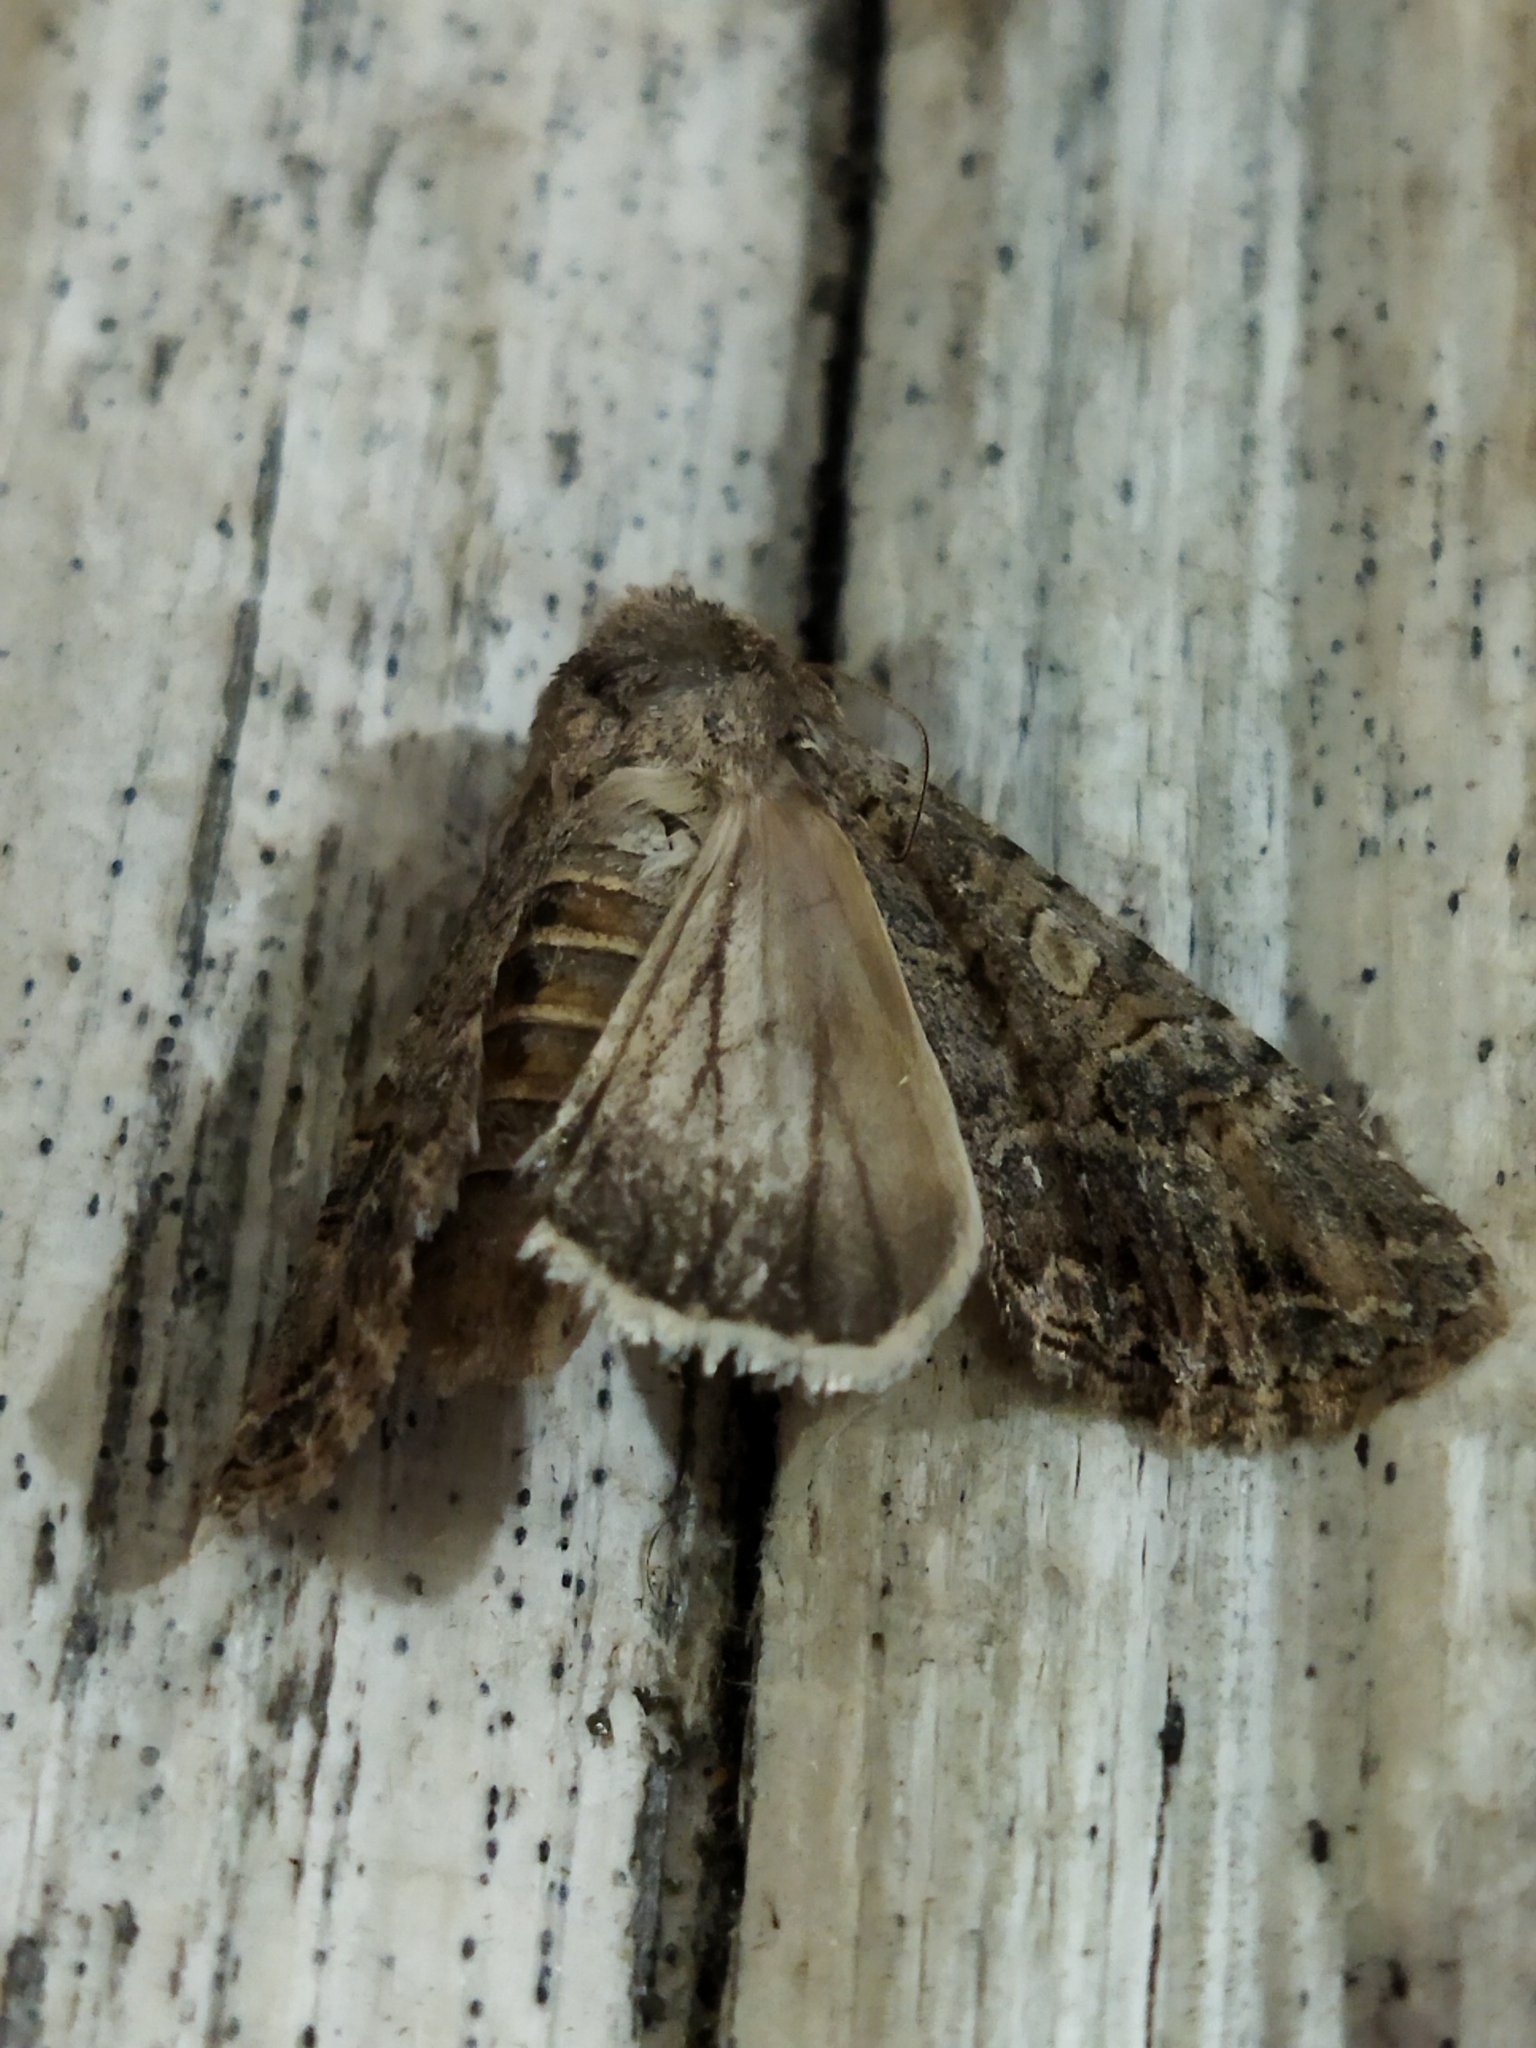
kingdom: Animalia
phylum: Arthropoda
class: Insecta
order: Lepidoptera
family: Noctuidae
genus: Anarta
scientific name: Anarta trifolii
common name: Clover cutworm moth
